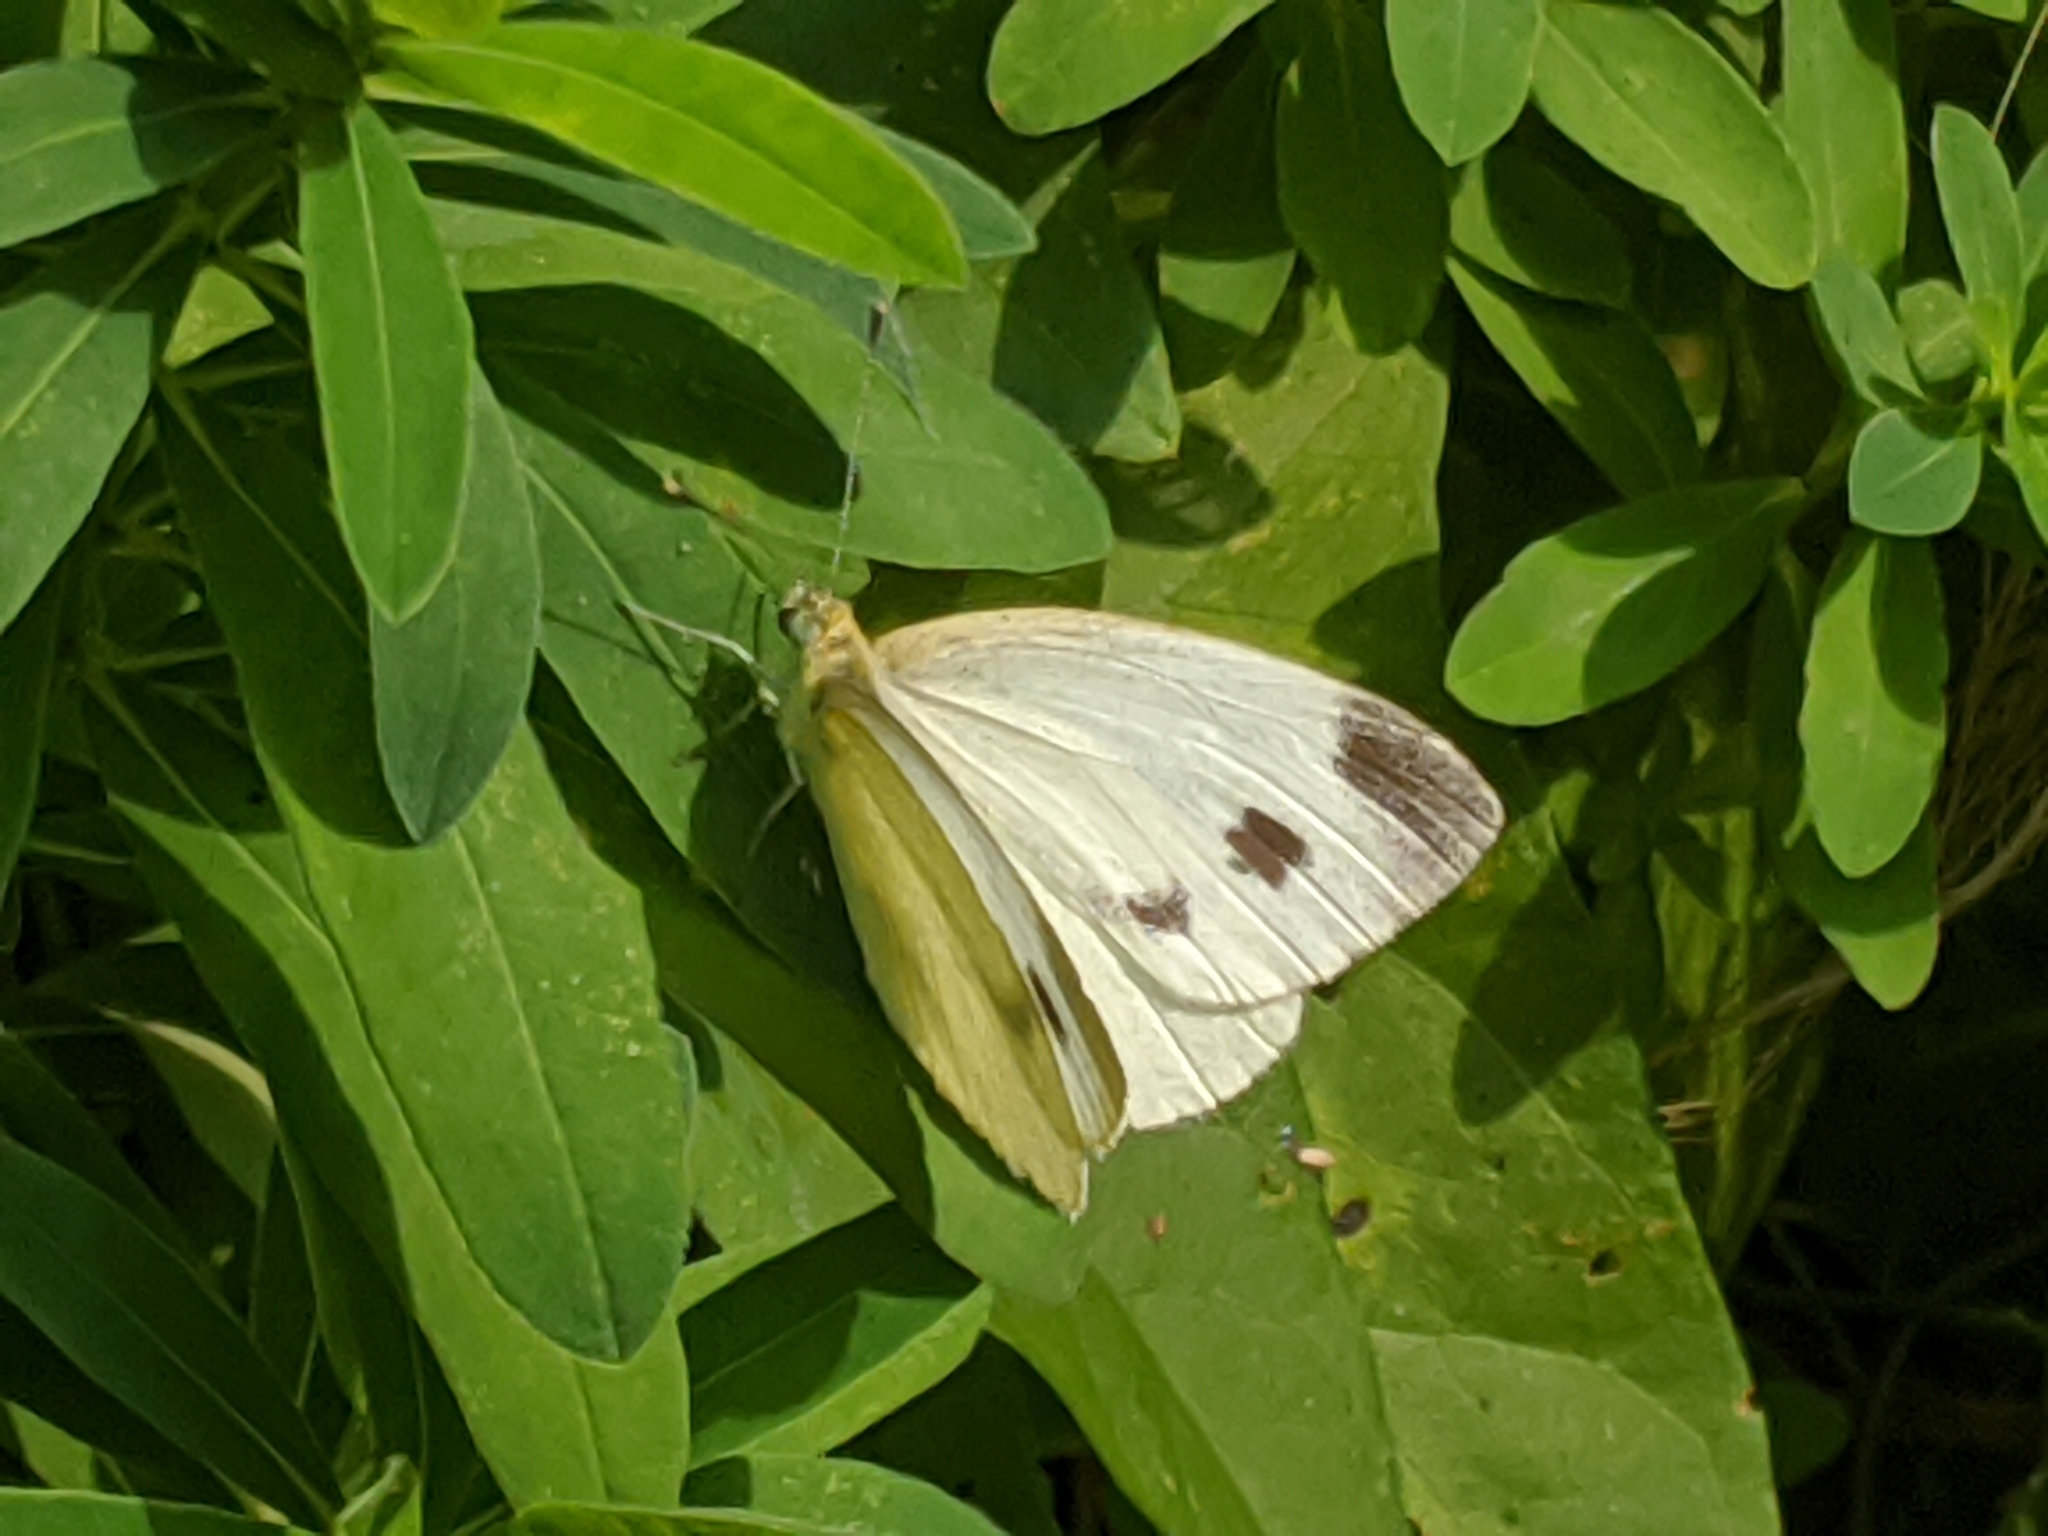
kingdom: Animalia
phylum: Arthropoda
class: Insecta
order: Lepidoptera
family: Pieridae
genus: Pieris
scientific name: Pieris rapae
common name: Small white
